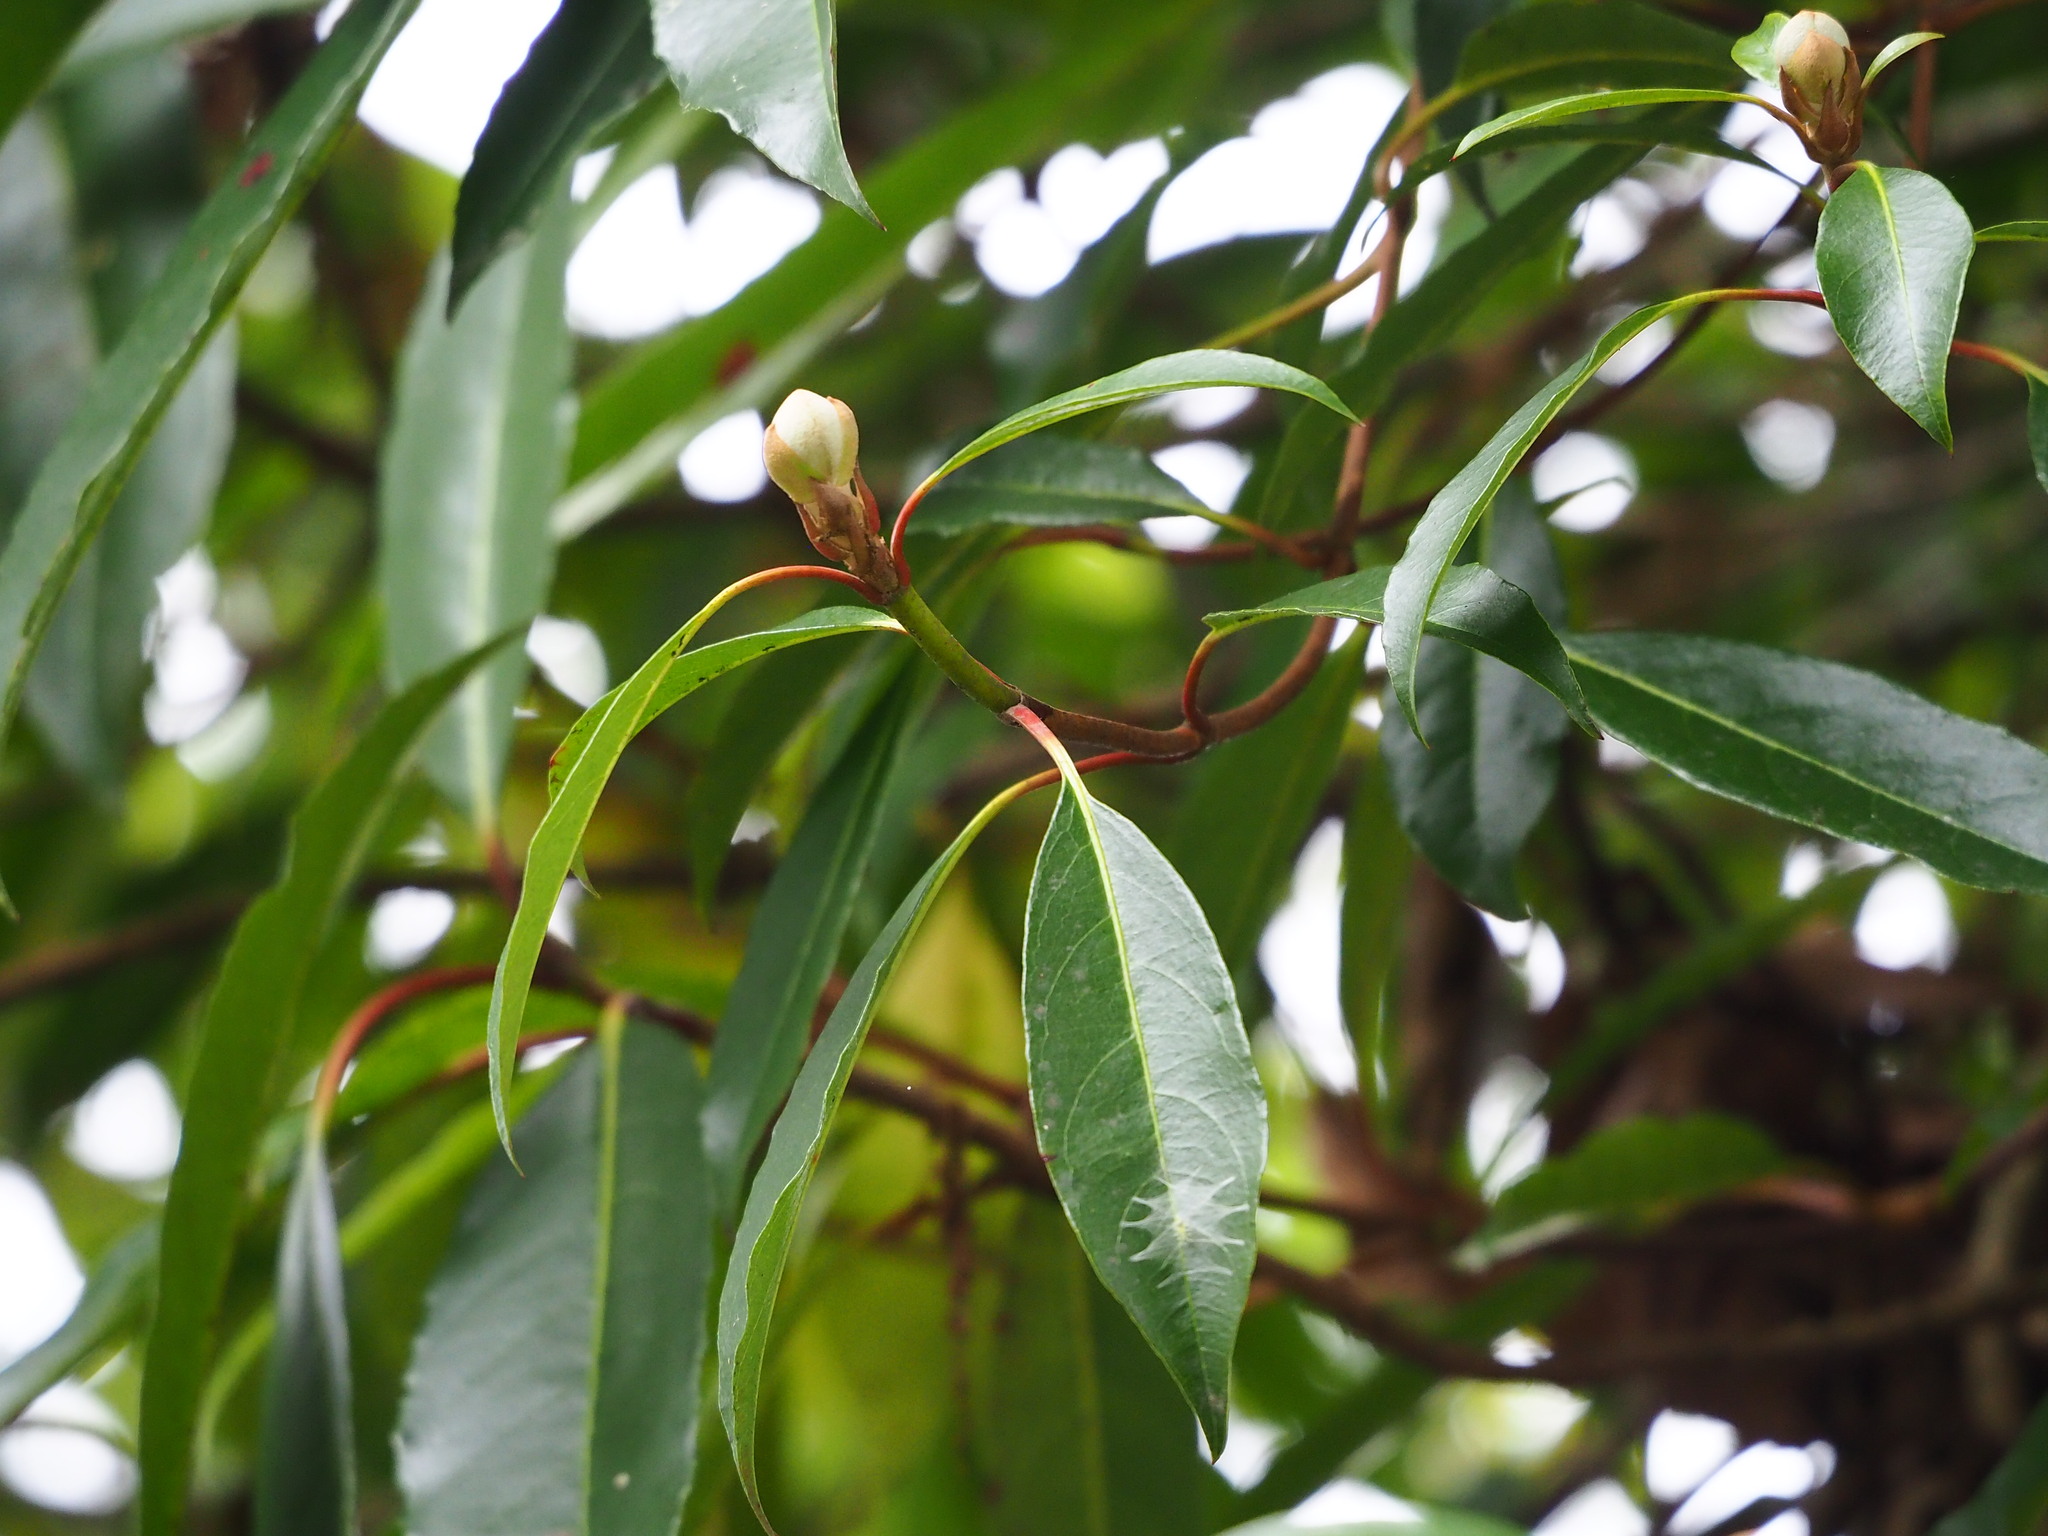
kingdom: Plantae
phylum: Tracheophyta
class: Magnoliopsida
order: Cornales
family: Hydrangeaceae
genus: Hydrangea
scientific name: Hydrangea integrifolia
